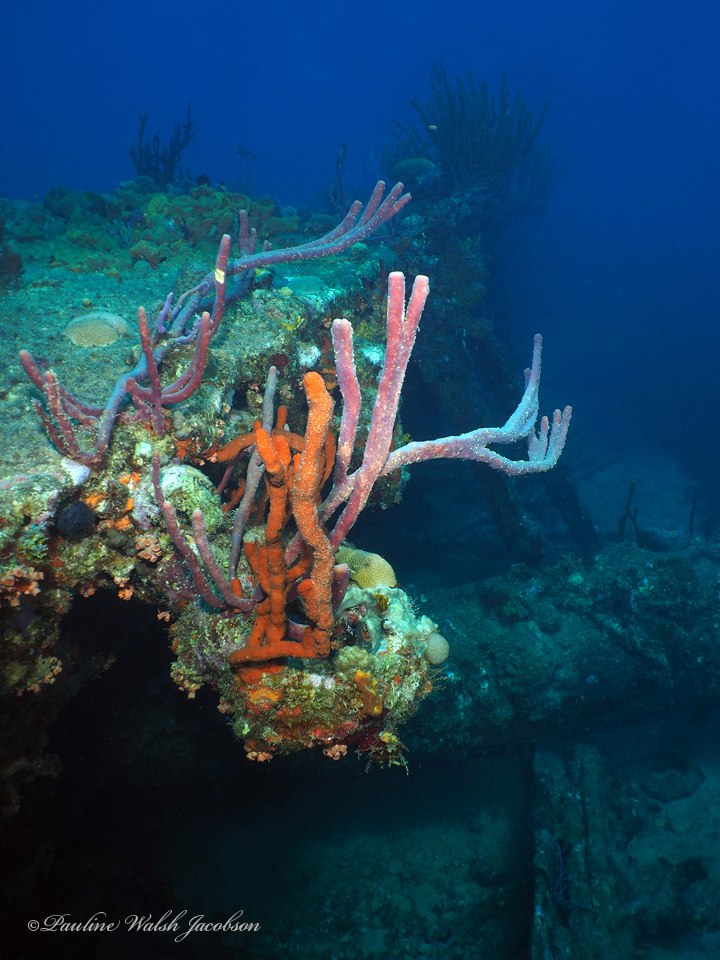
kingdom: Animalia
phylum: Porifera
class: Demospongiae
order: Verongiida
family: Aplysinidae
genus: Aplysina
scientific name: Aplysina cauliformis
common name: Branching candle sponge
